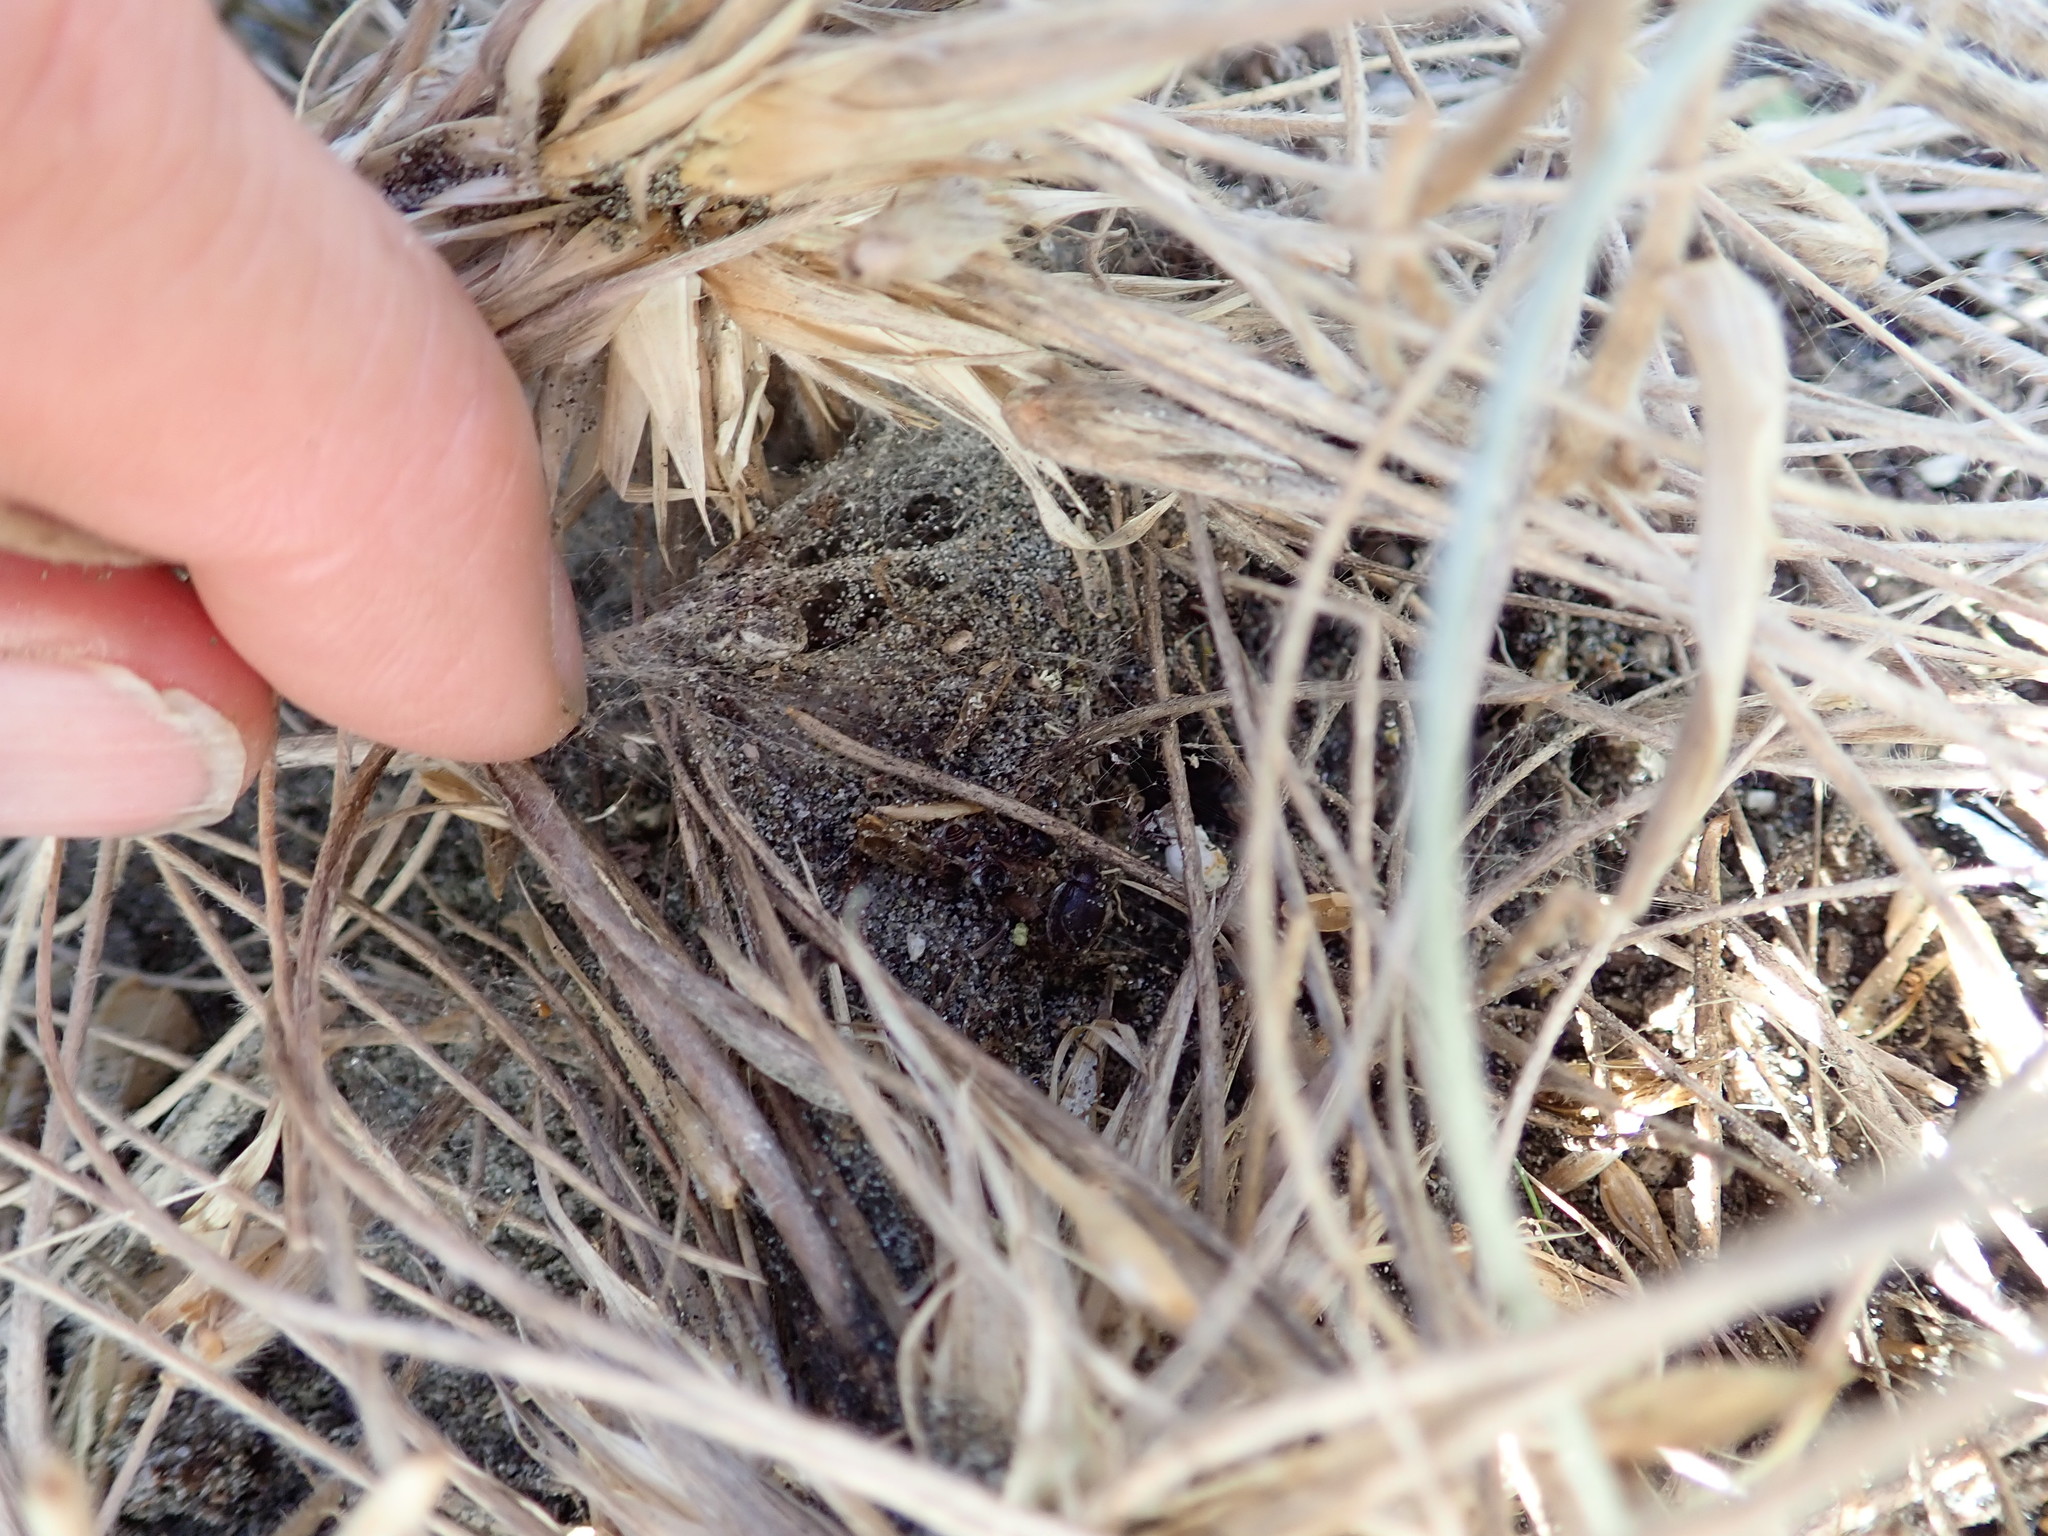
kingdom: Animalia
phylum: Arthropoda
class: Arachnida
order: Araneae
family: Theridiidae
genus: Latrodectus
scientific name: Latrodectus katipo
